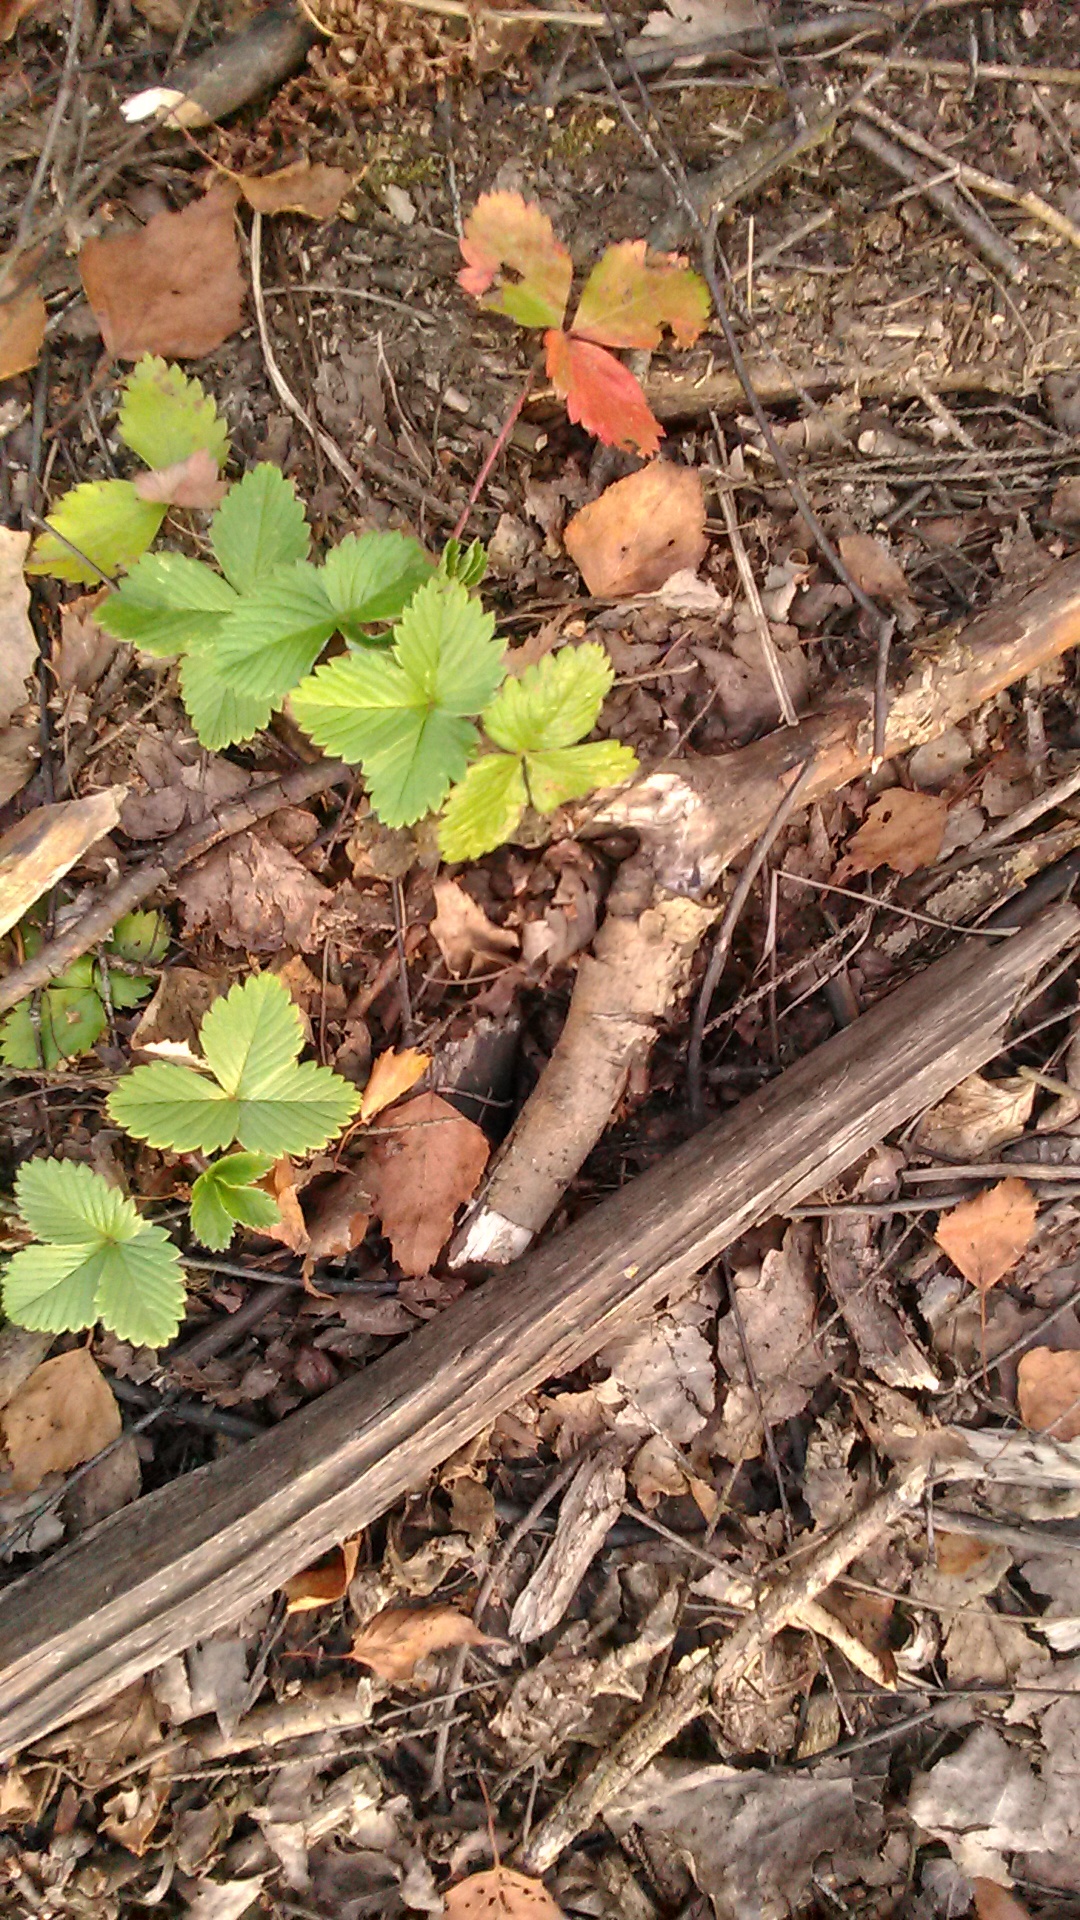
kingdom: Plantae
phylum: Tracheophyta
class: Magnoliopsida
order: Rosales
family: Rosaceae
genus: Fragaria
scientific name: Fragaria vesca
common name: Wild strawberry
